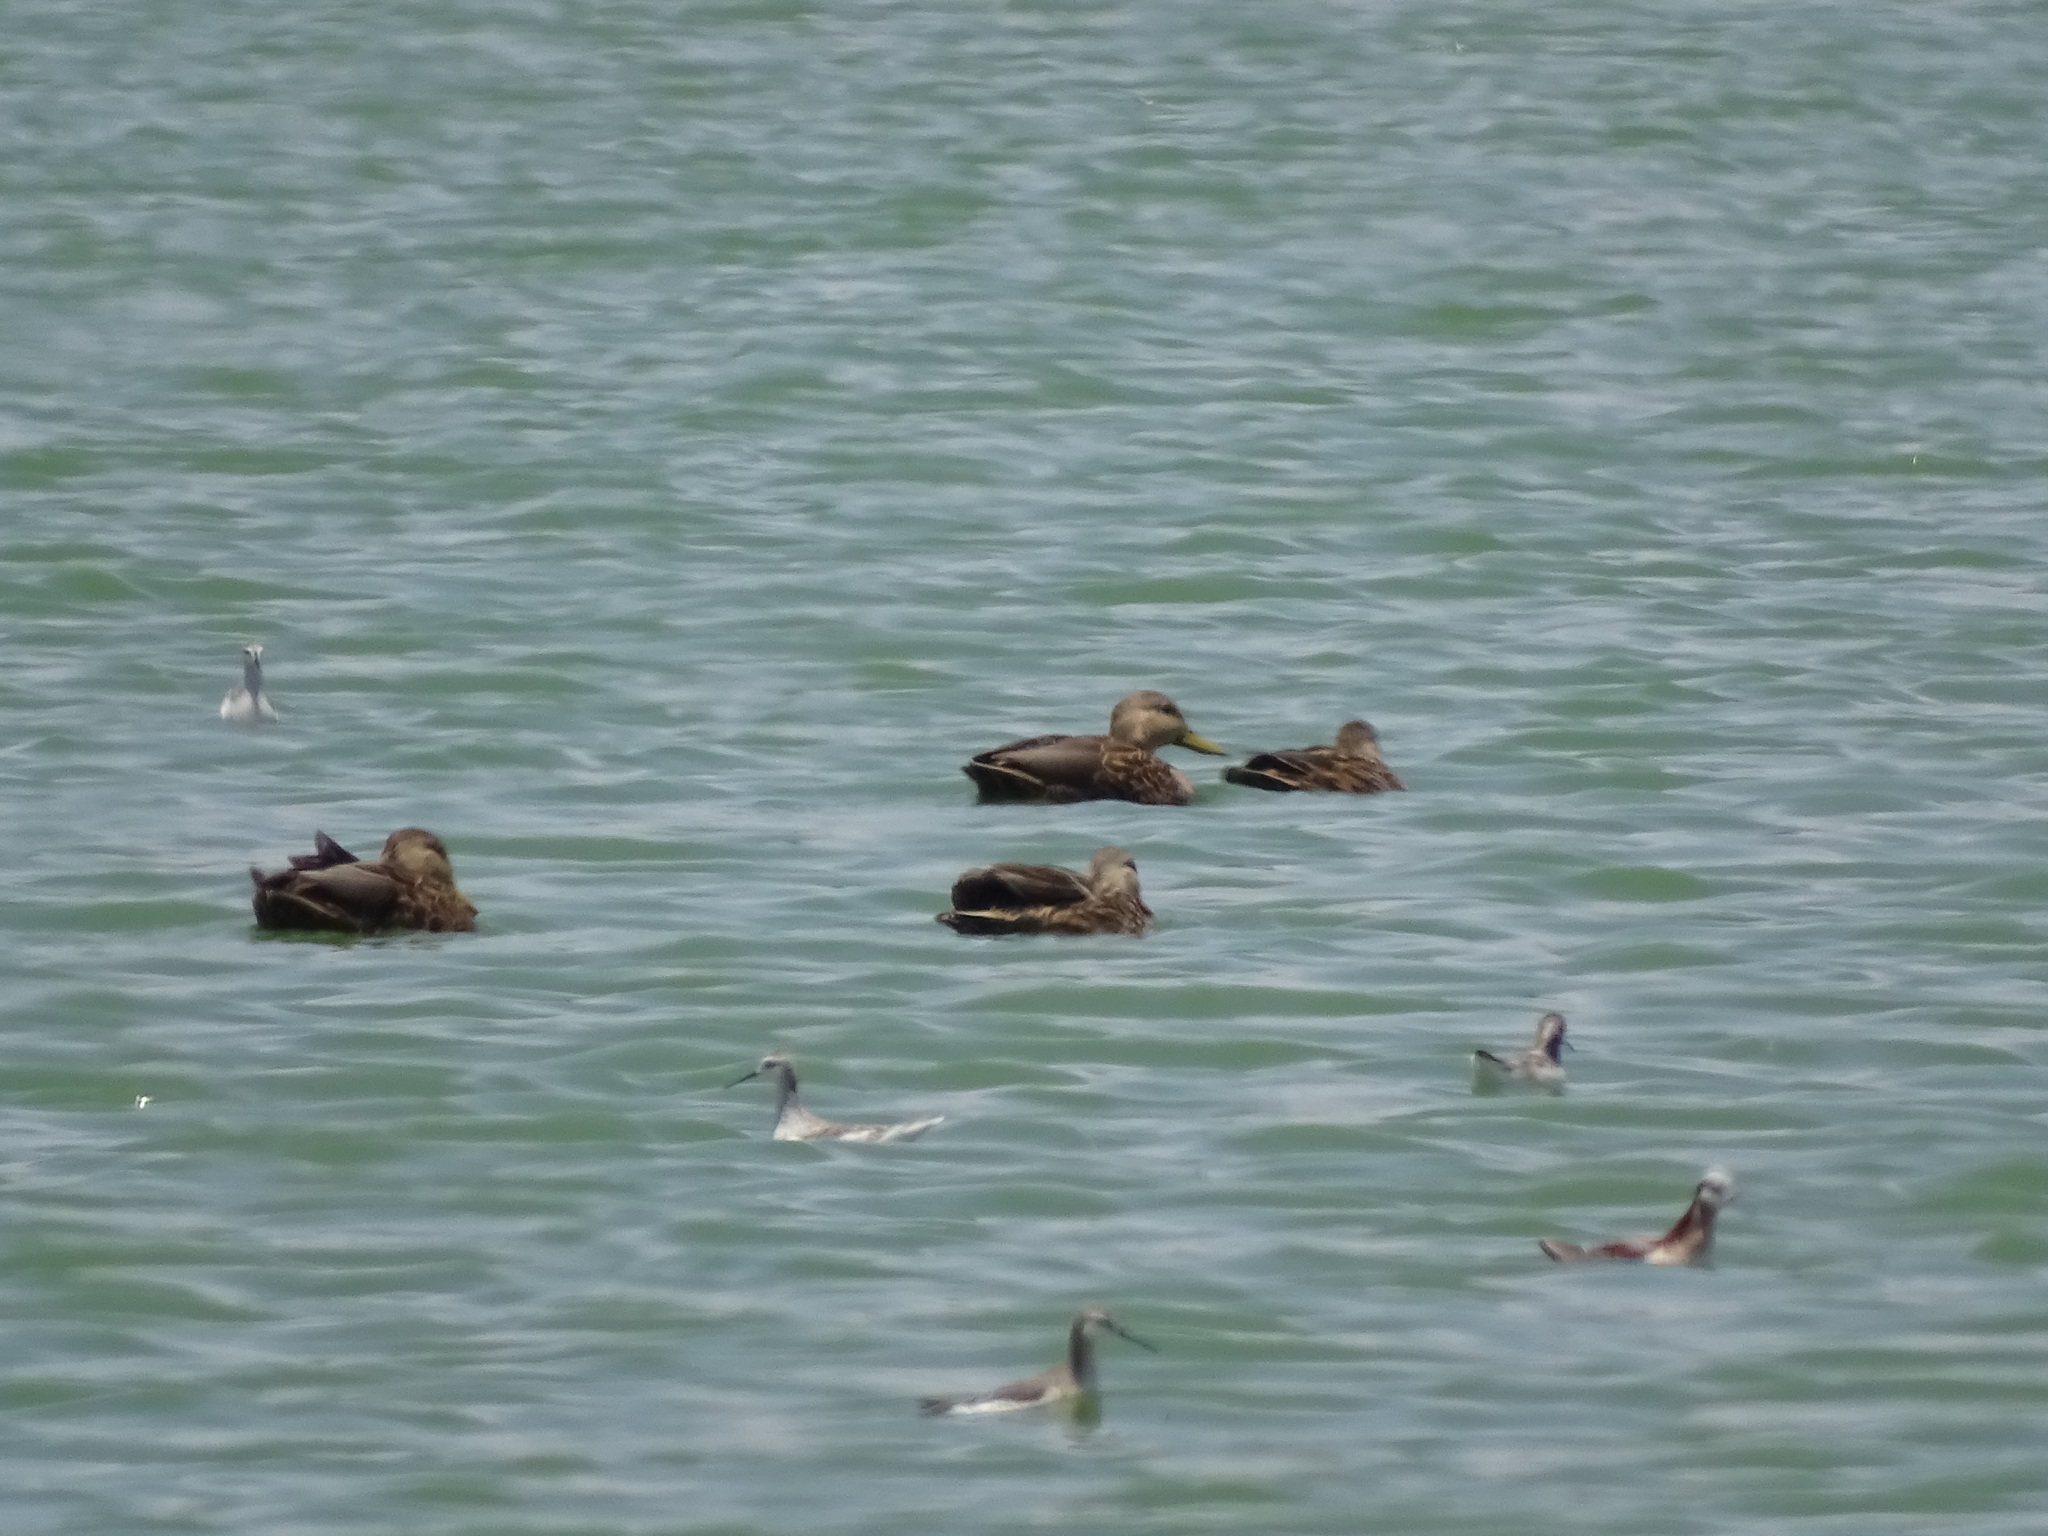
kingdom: Animalia
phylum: Chordata
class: Aves
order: Anseriformes
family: Anatidae
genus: Anas
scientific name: Anas diazi
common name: Mexican duck
